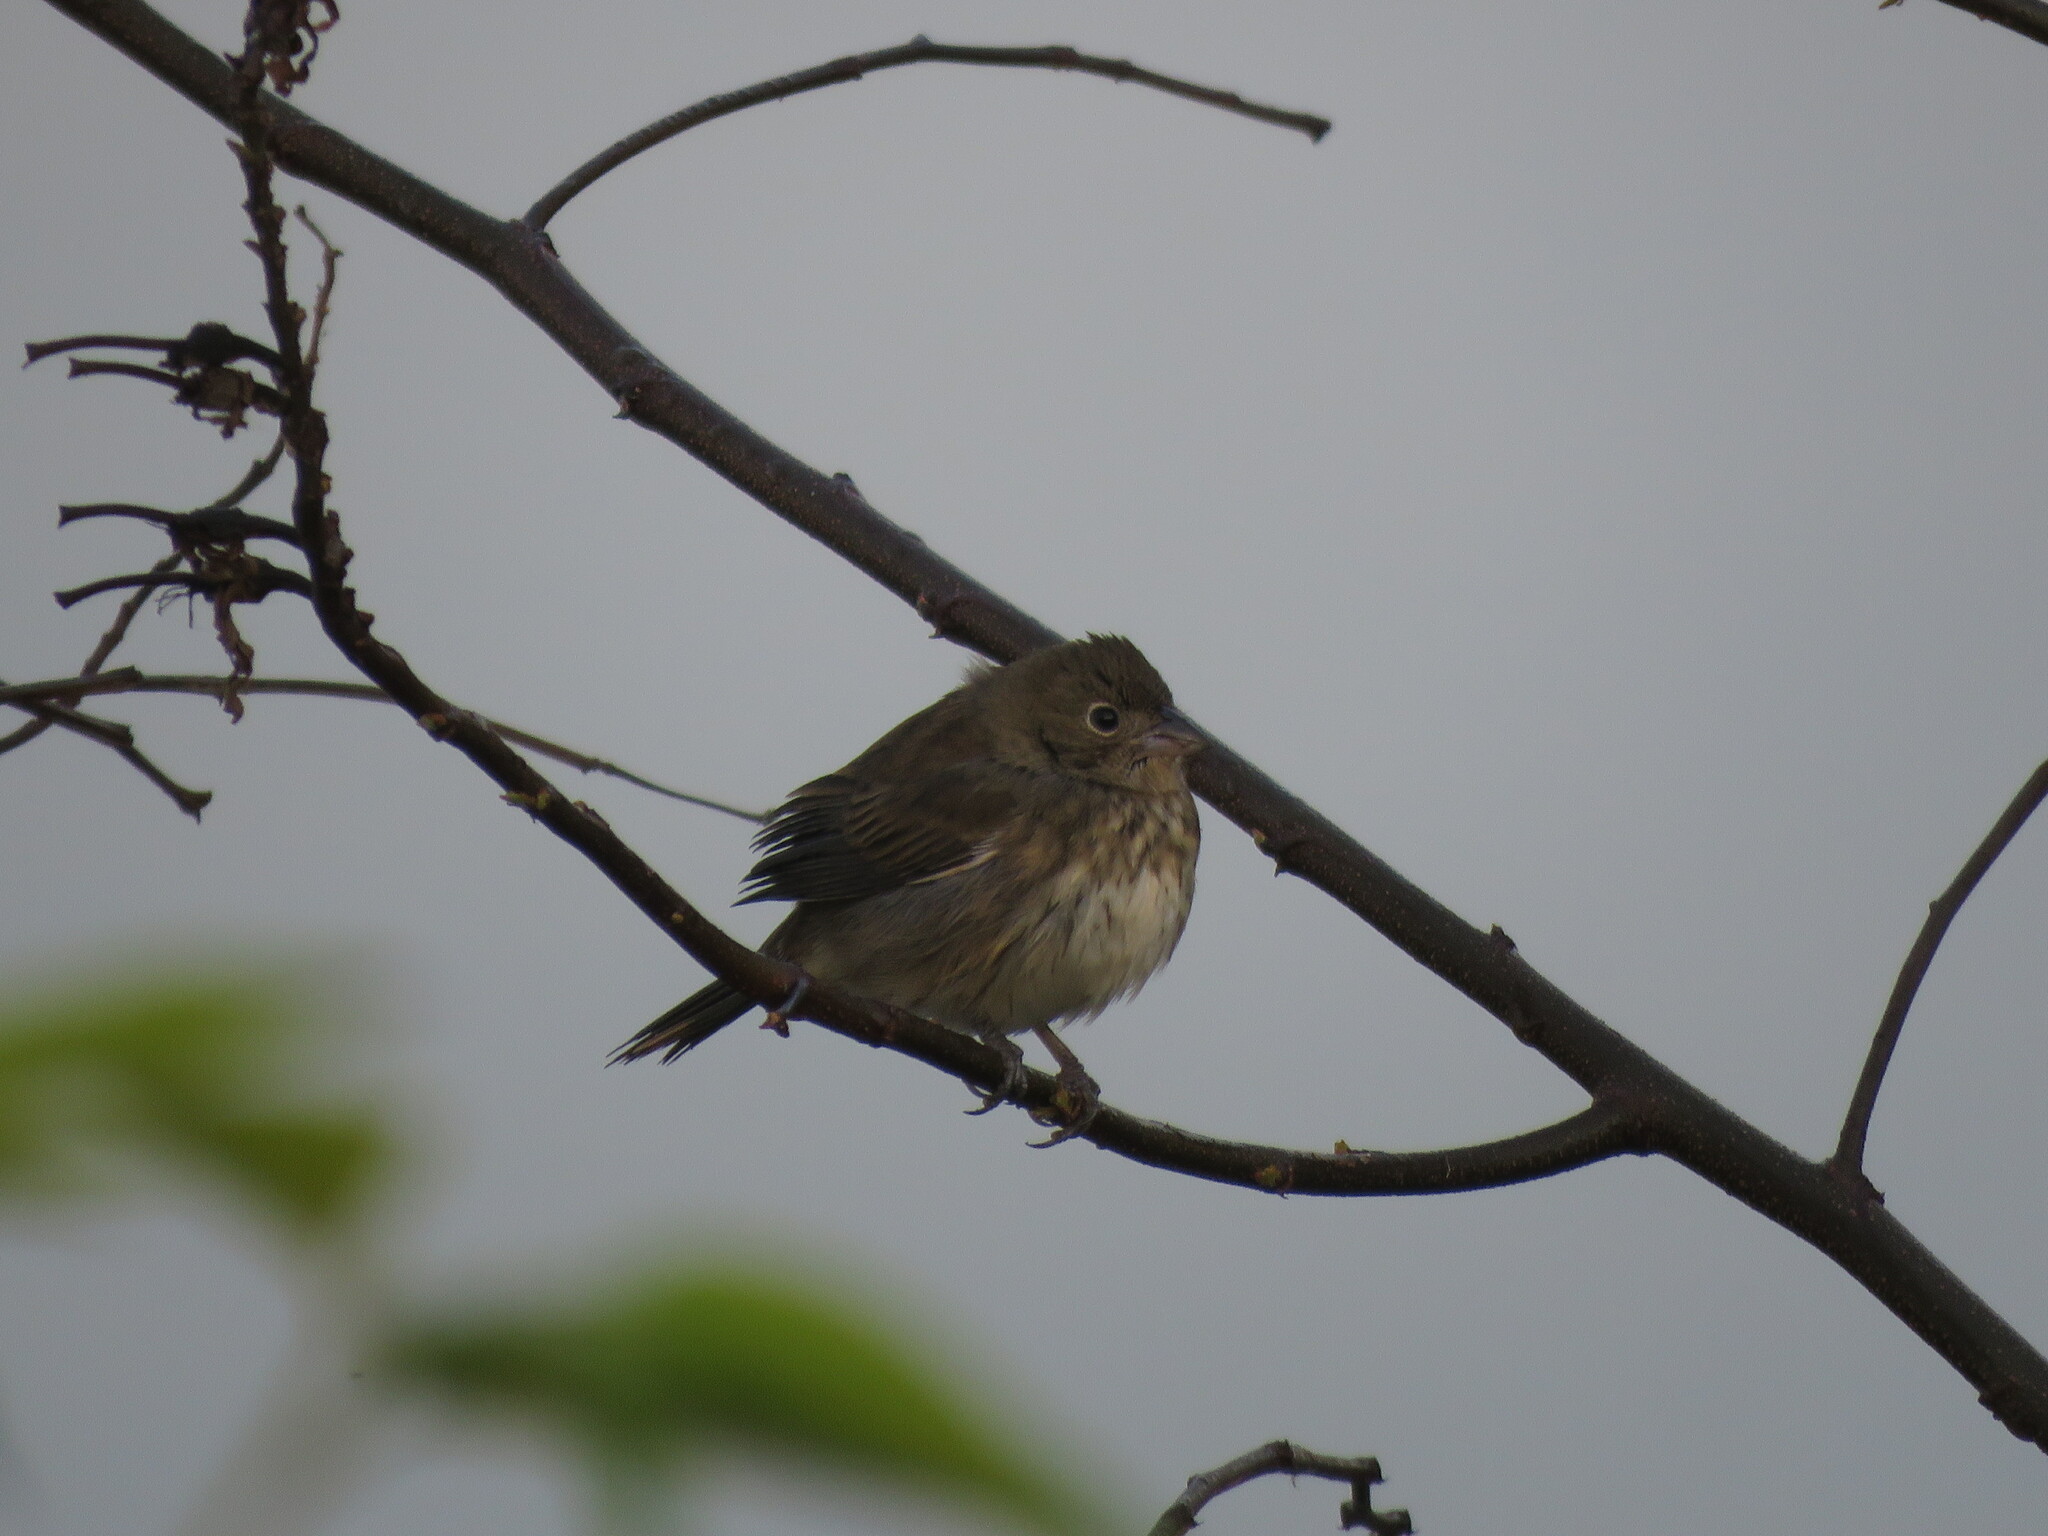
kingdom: Animalia
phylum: Chordata
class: Aves
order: Passeriformes
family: Thraupidae
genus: Volatinia
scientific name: Volatinia jacarina
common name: Blue-black grassquit
